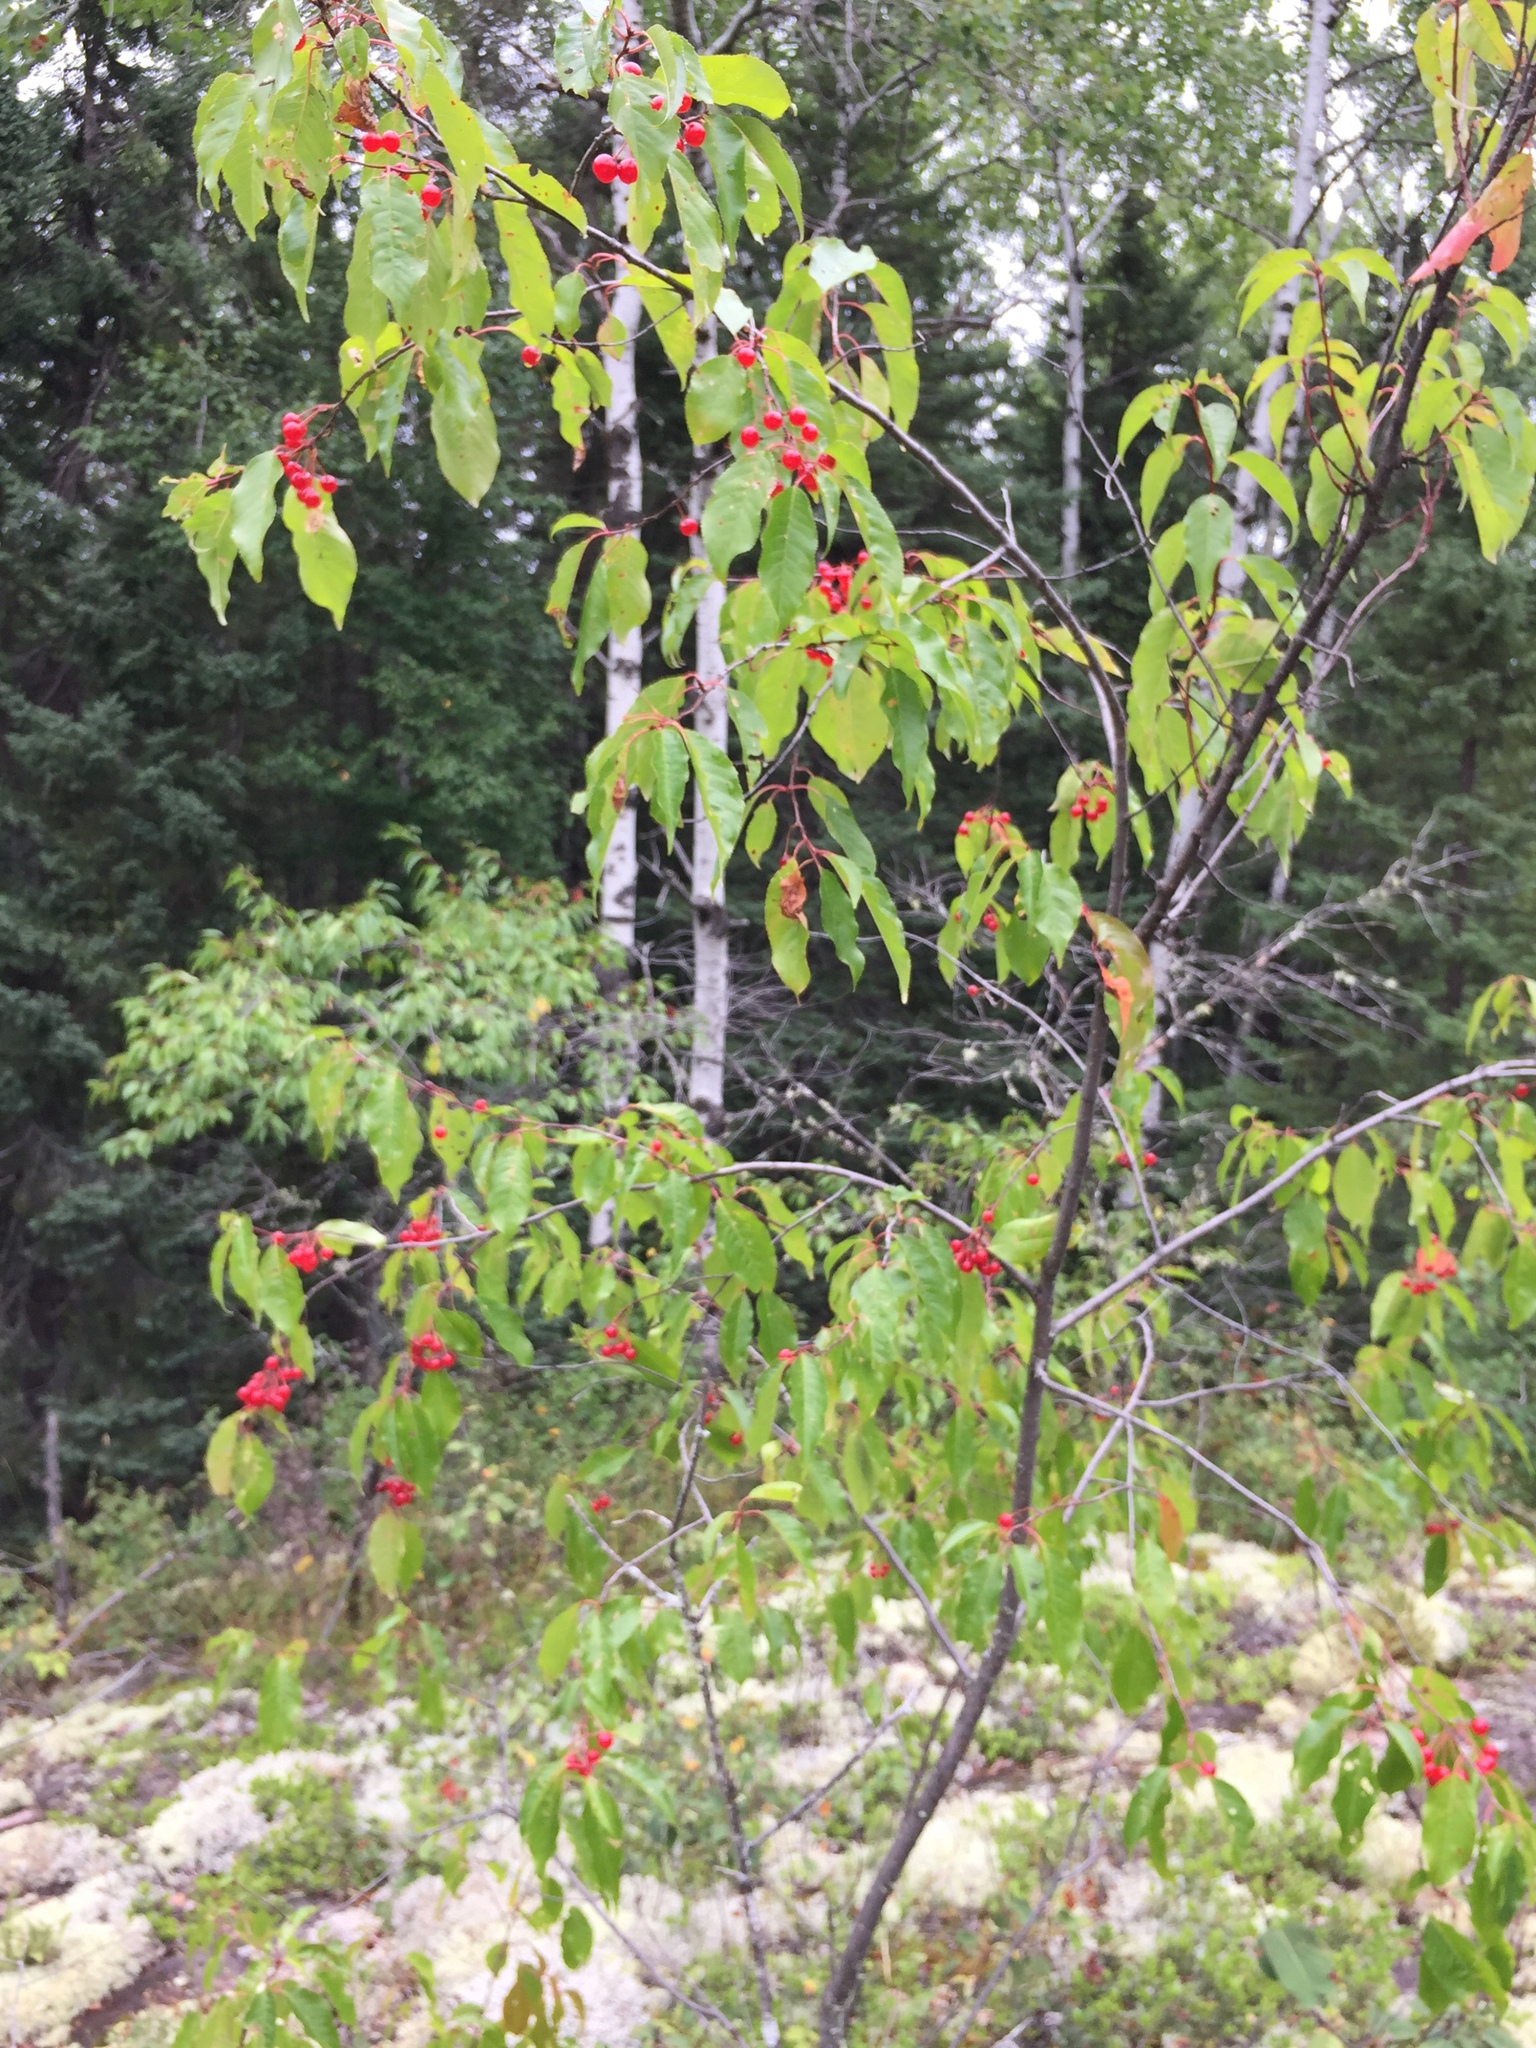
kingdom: Plantae
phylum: Tracheophyta
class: Magnoliopsida
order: Rosales
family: Rosaceae
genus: Prunus
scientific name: Prunus pensylvanica
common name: Pin cherry
